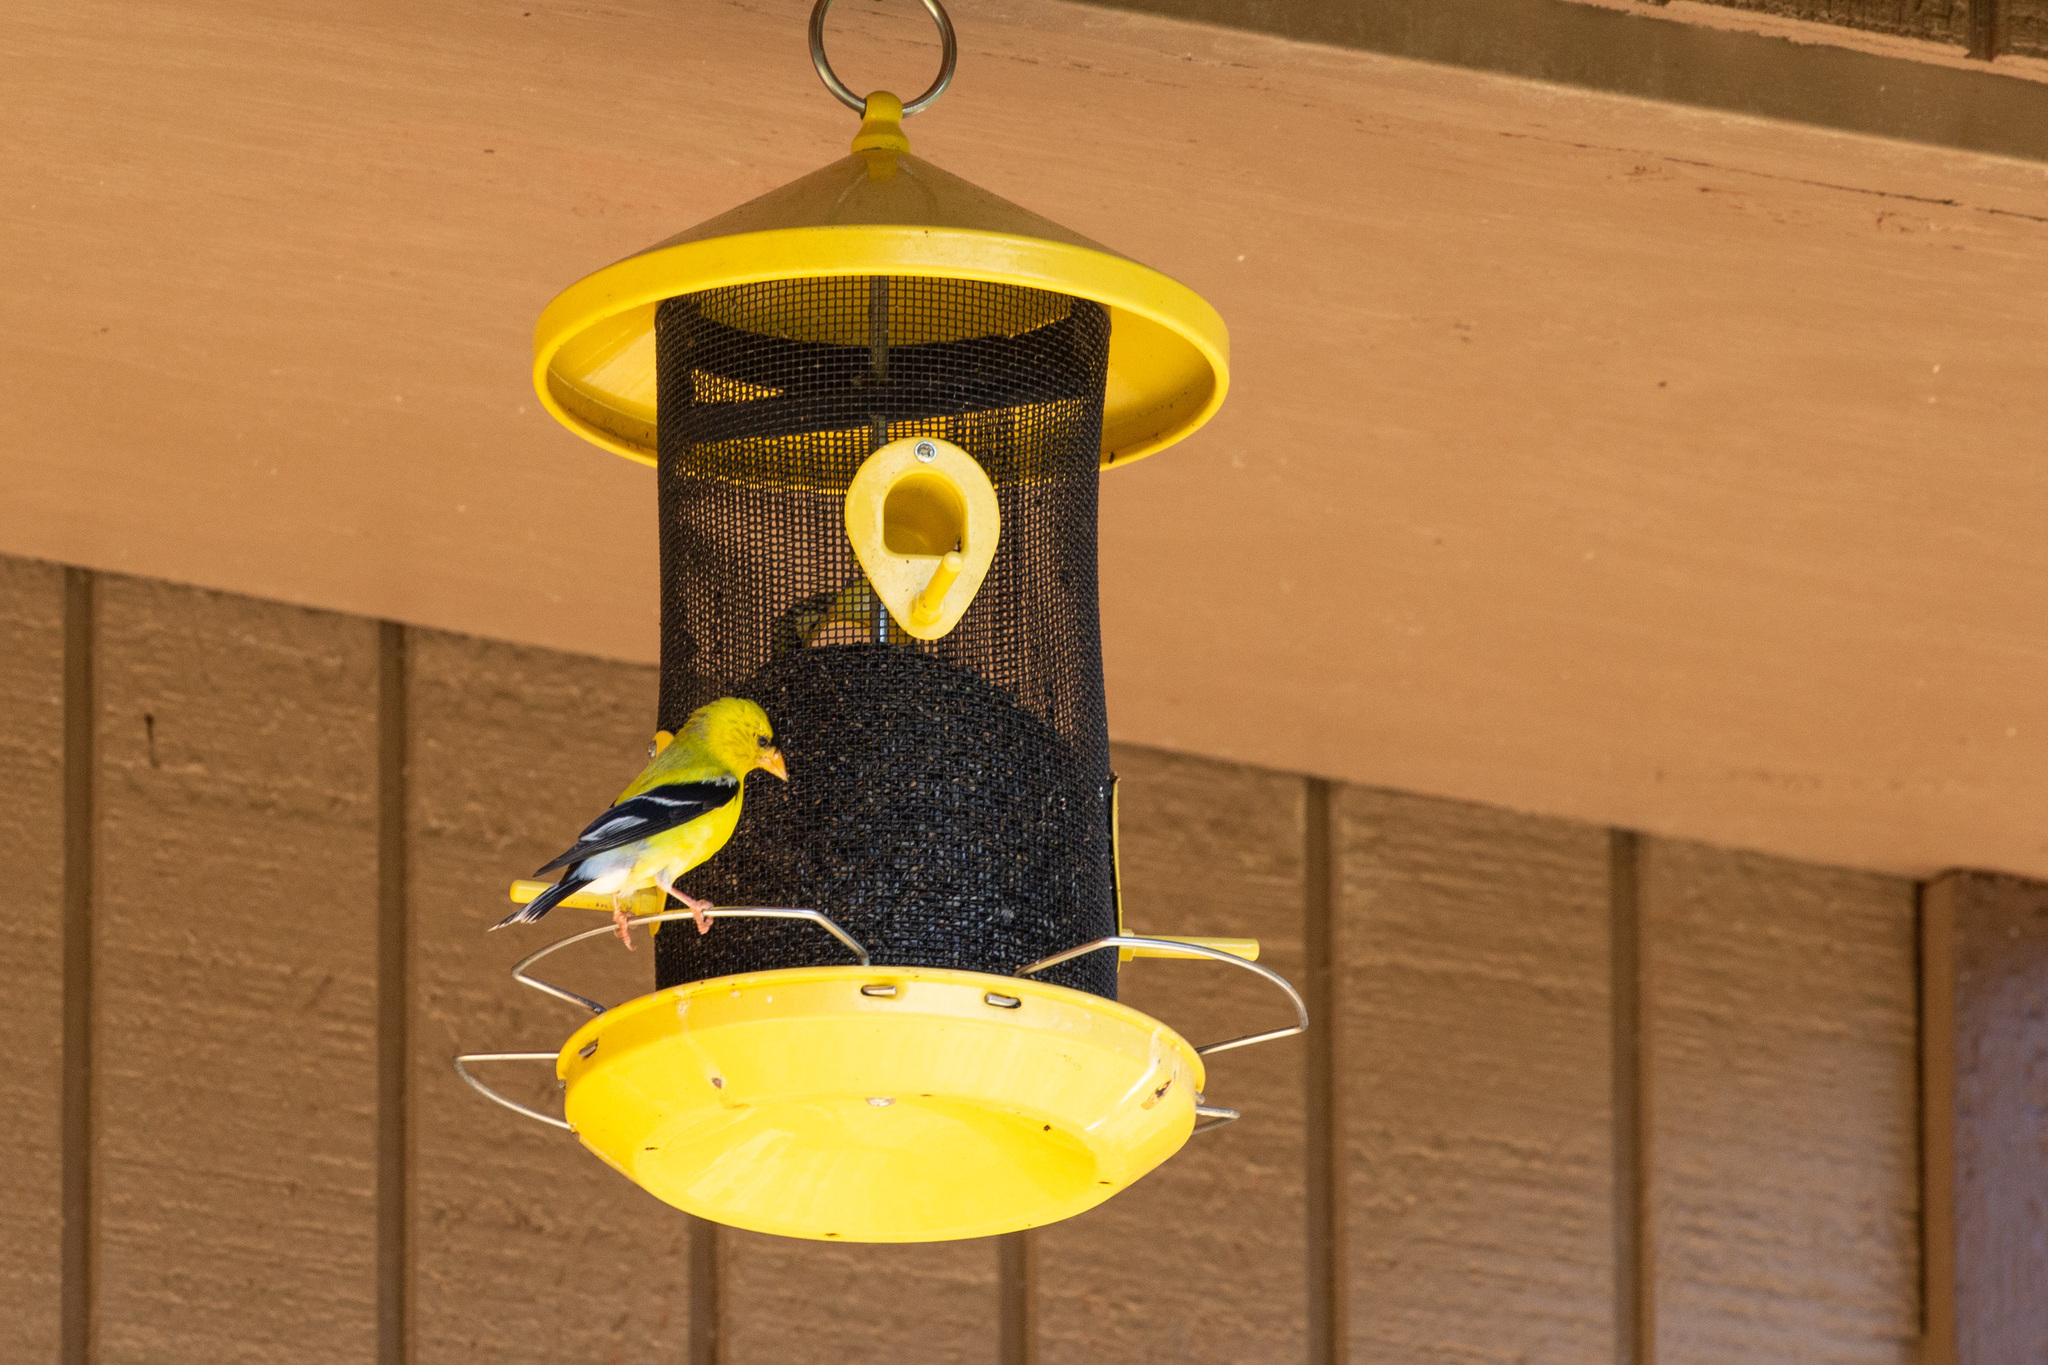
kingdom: Animalia
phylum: Chordata
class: Aves
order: Passeriformes
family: Fringillidae
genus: Spinus
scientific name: Spinus tristis
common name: American goldfinch
